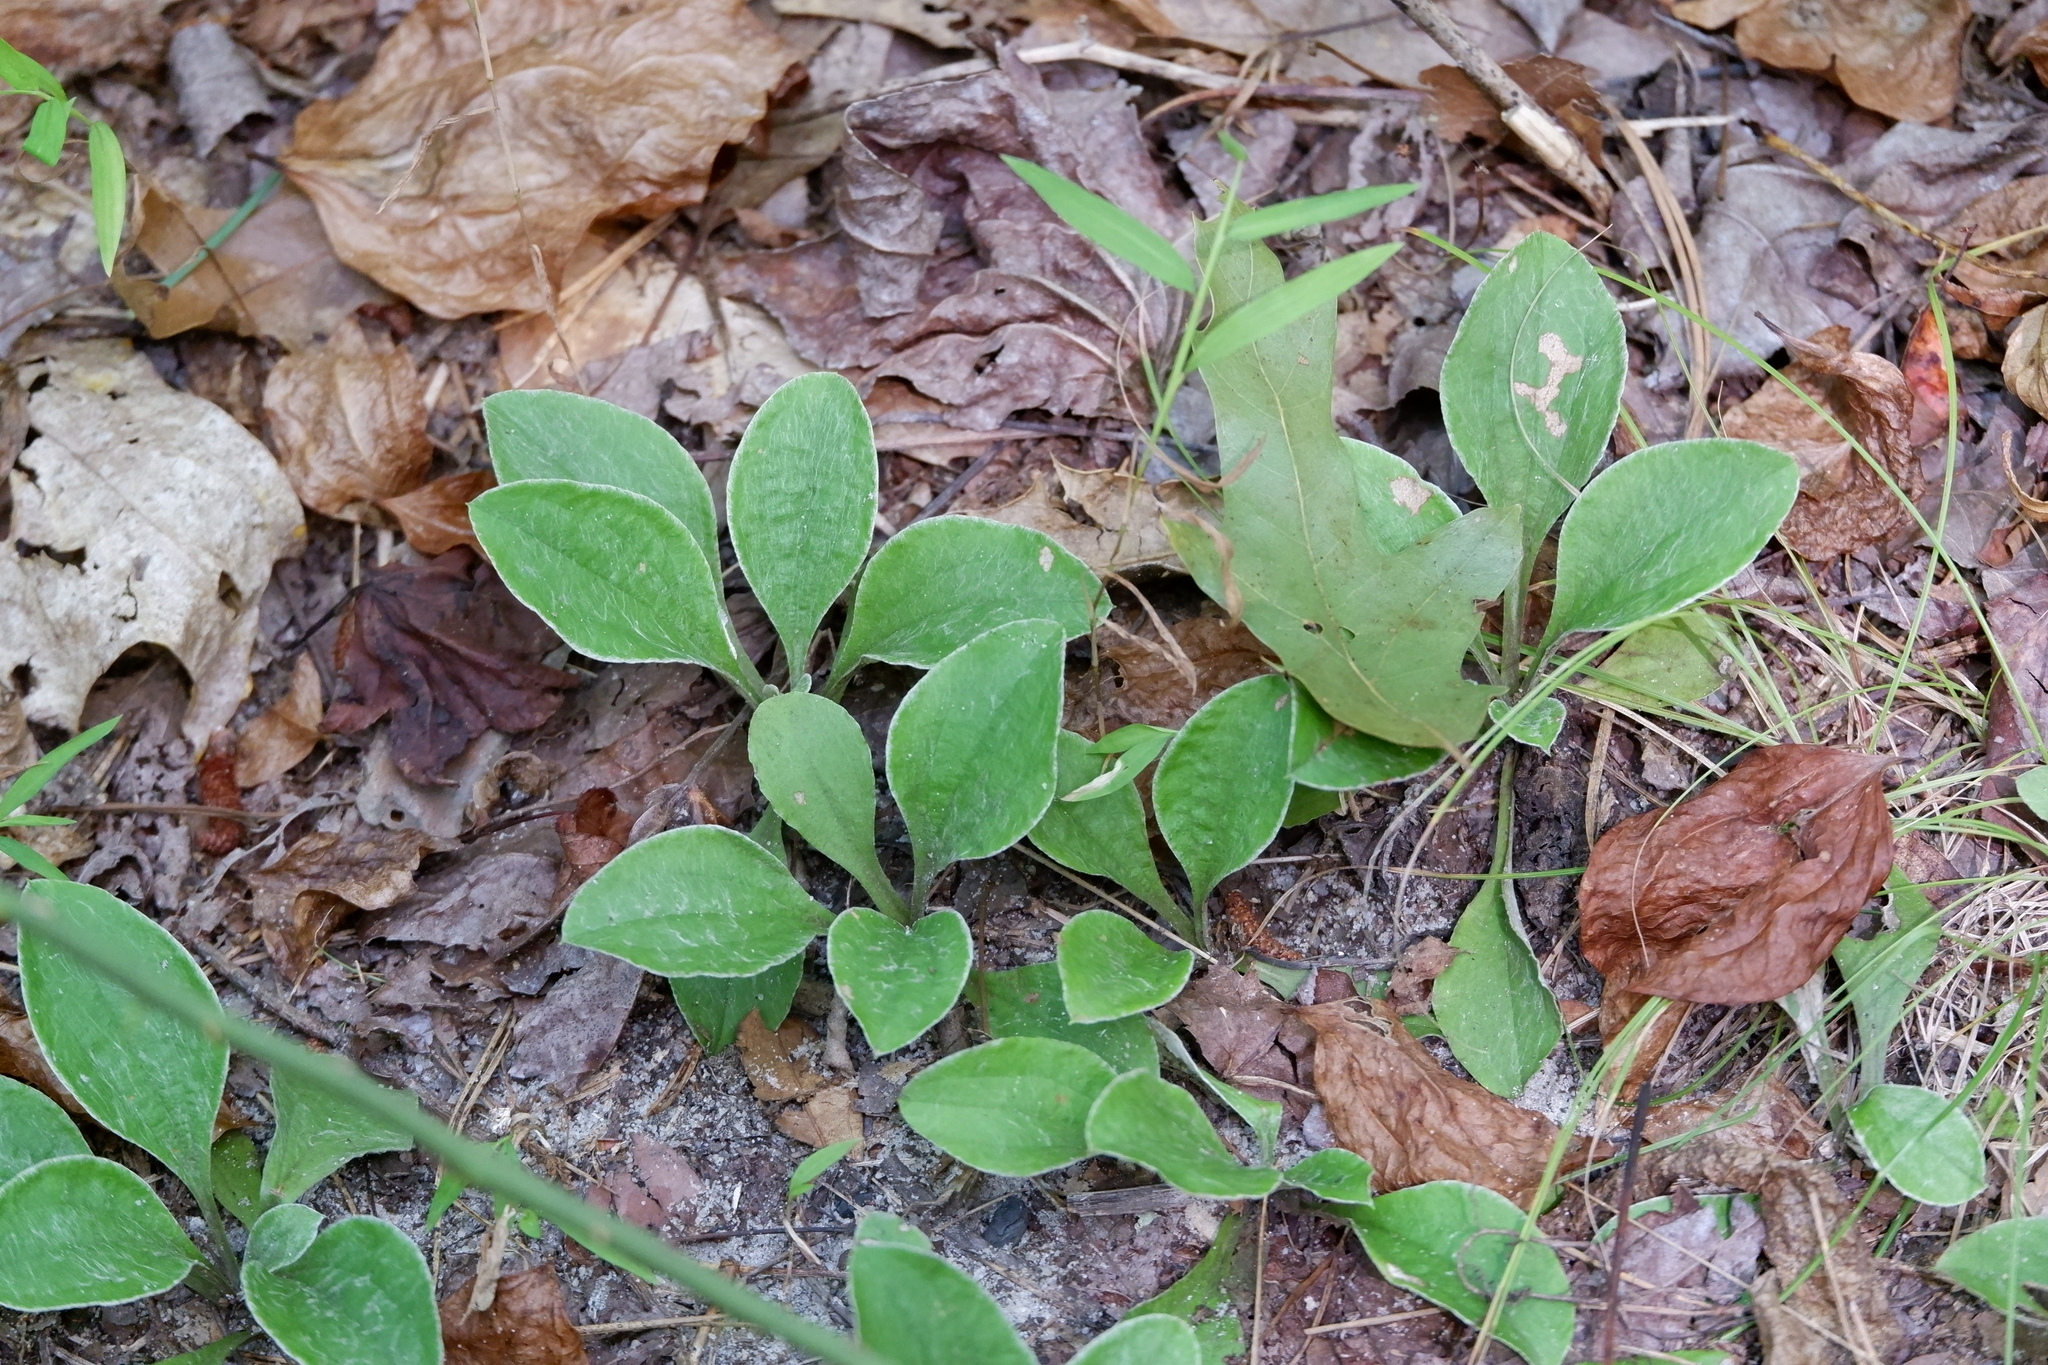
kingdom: Plantae
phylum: Tracheophyta
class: Magnoliopsida
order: Asterales
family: Asteraceae
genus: Antennaria
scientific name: Antennaria plantaginifolia
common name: Plantain-leaved pussytoes
